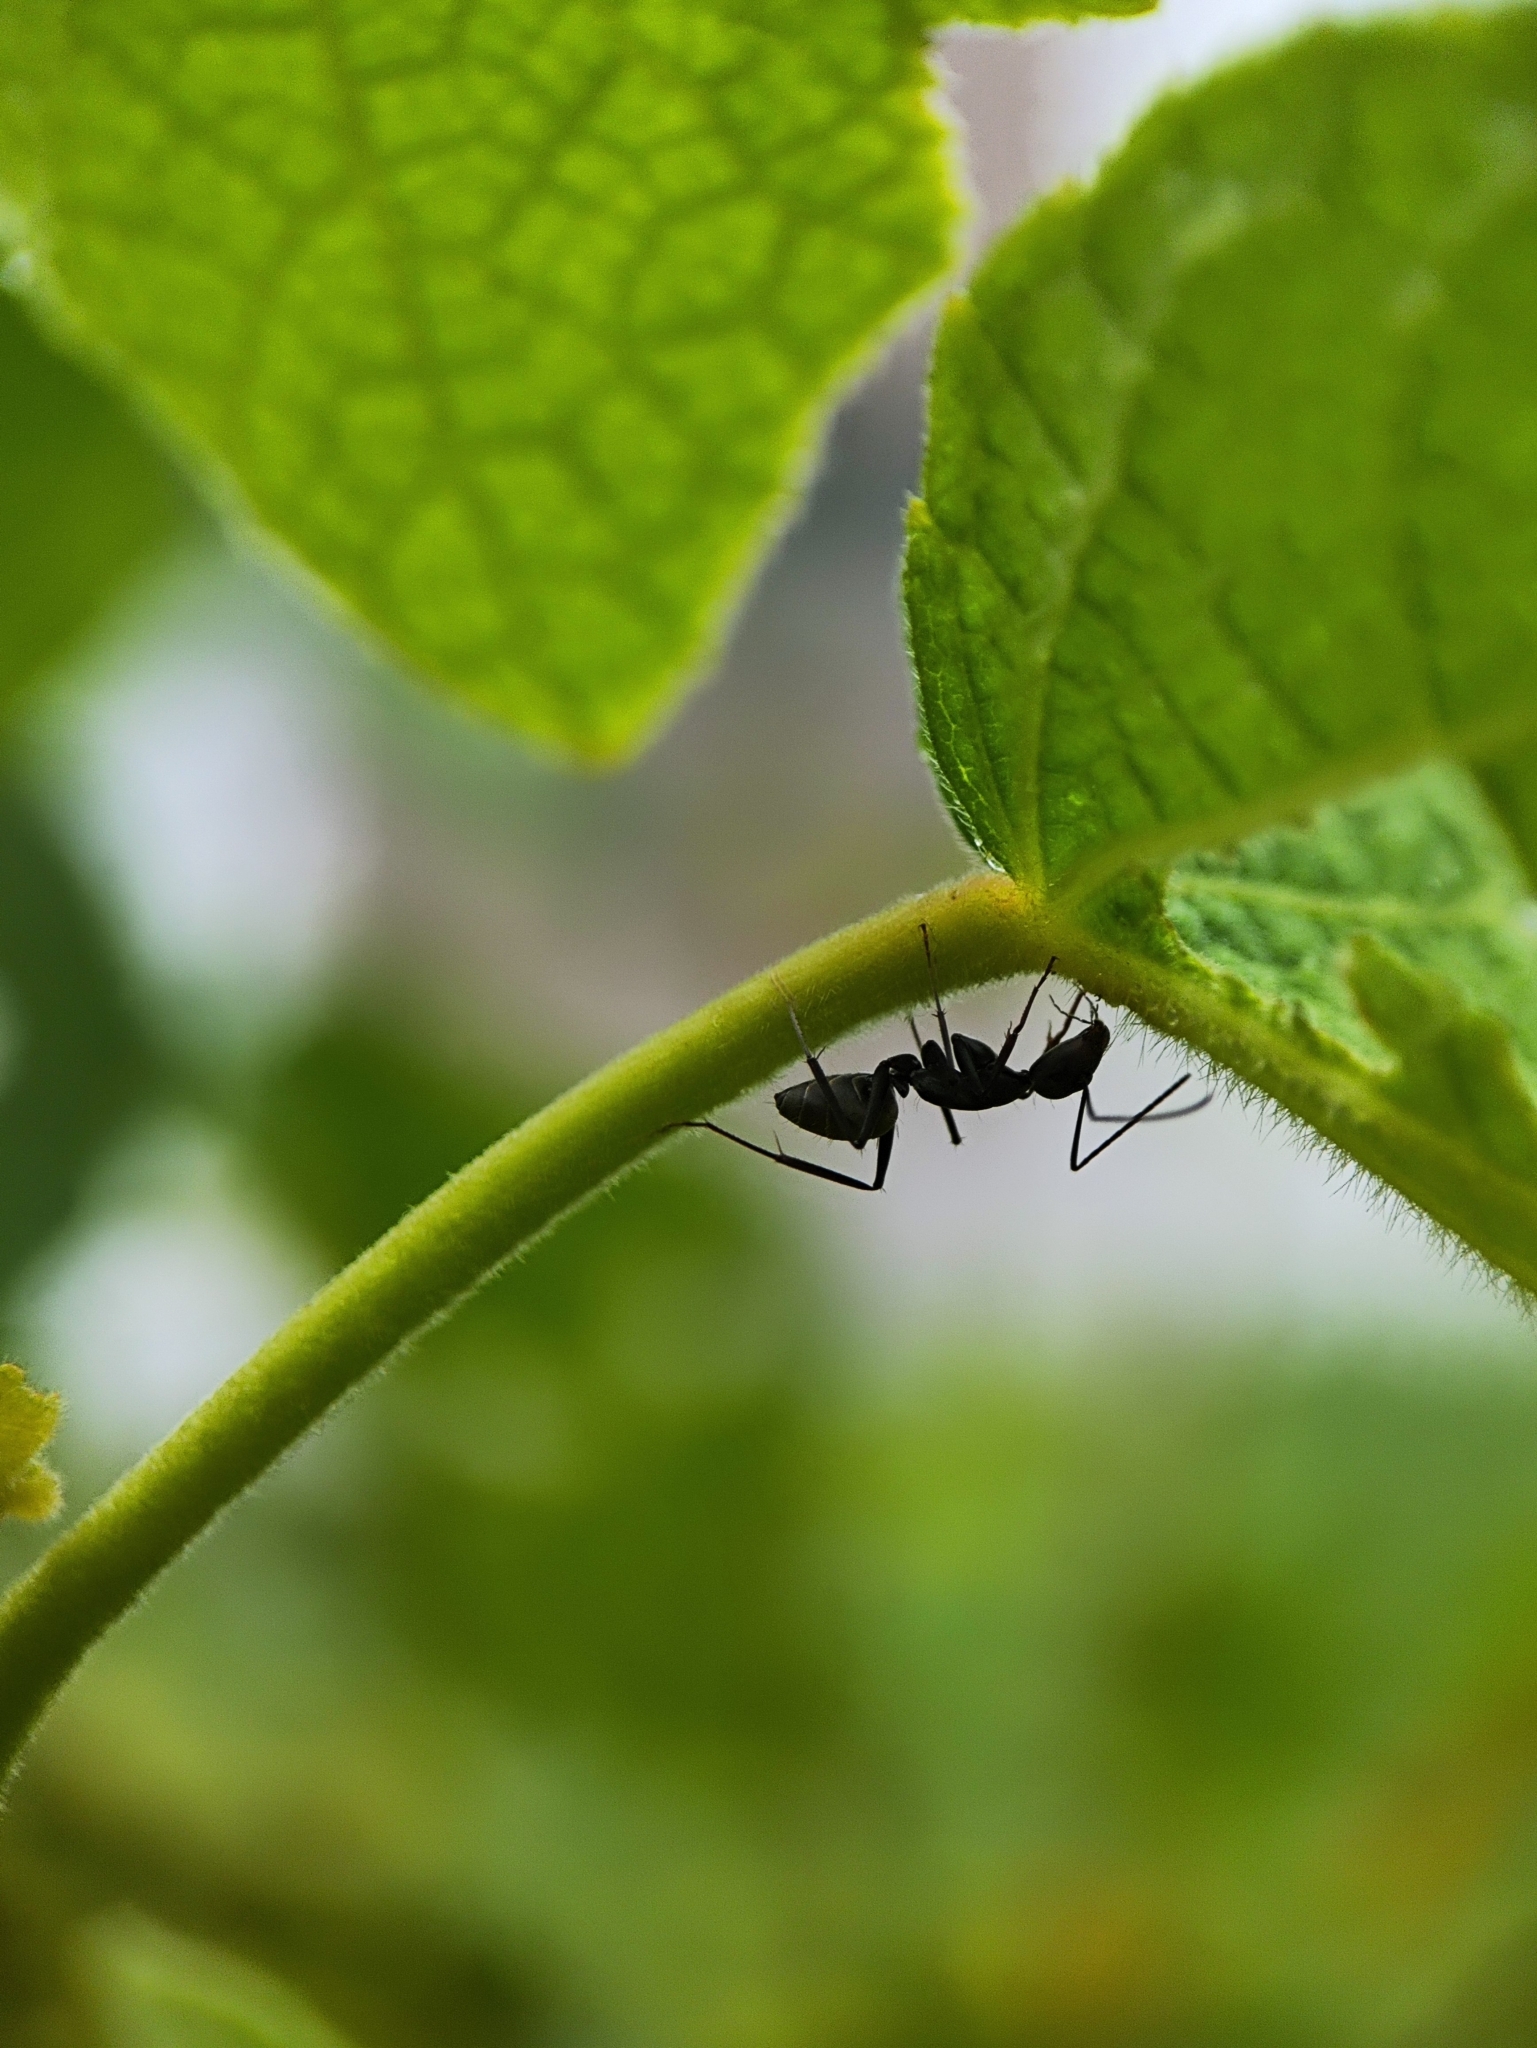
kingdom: Animalia
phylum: Arthropoda
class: Insecta
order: Hymenoptera
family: Formicidae
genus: Camponotus
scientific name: Camponotus compressus
